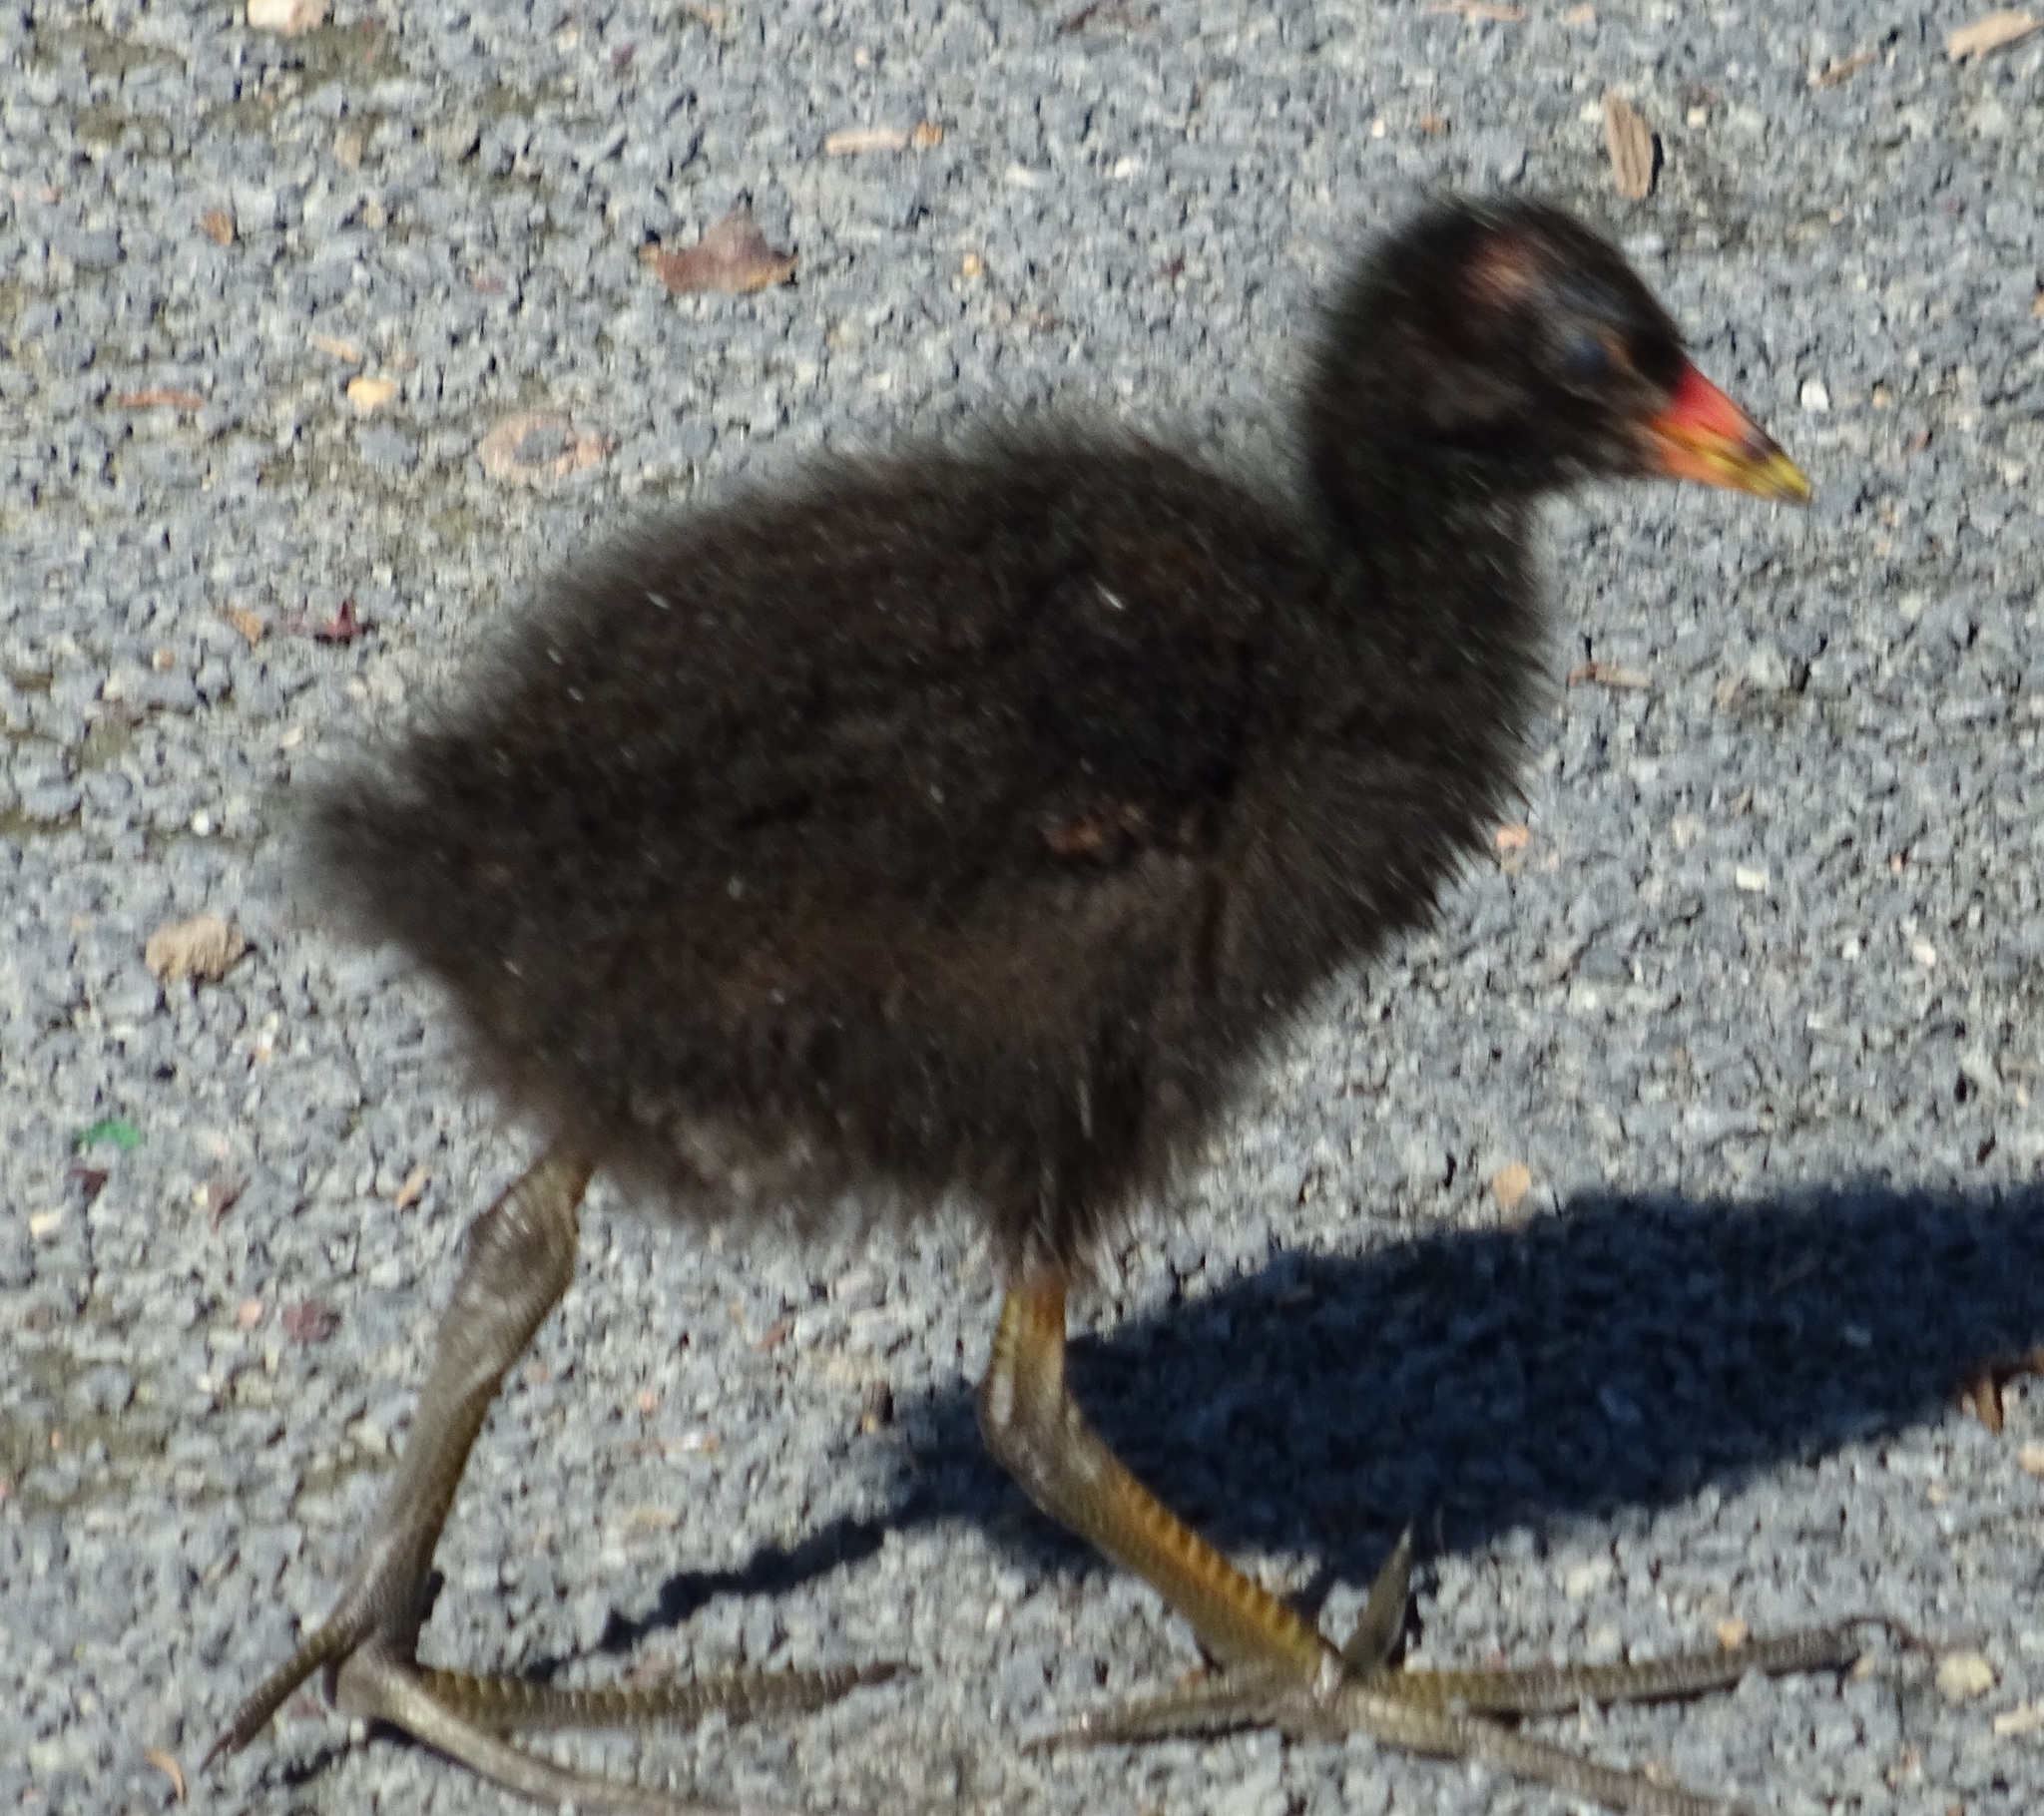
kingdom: Animalia
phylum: Chordata
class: Aves
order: Gruiformes
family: Rallidae
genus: Gallinula
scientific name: Gallinula chloropus
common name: Common moorhen
